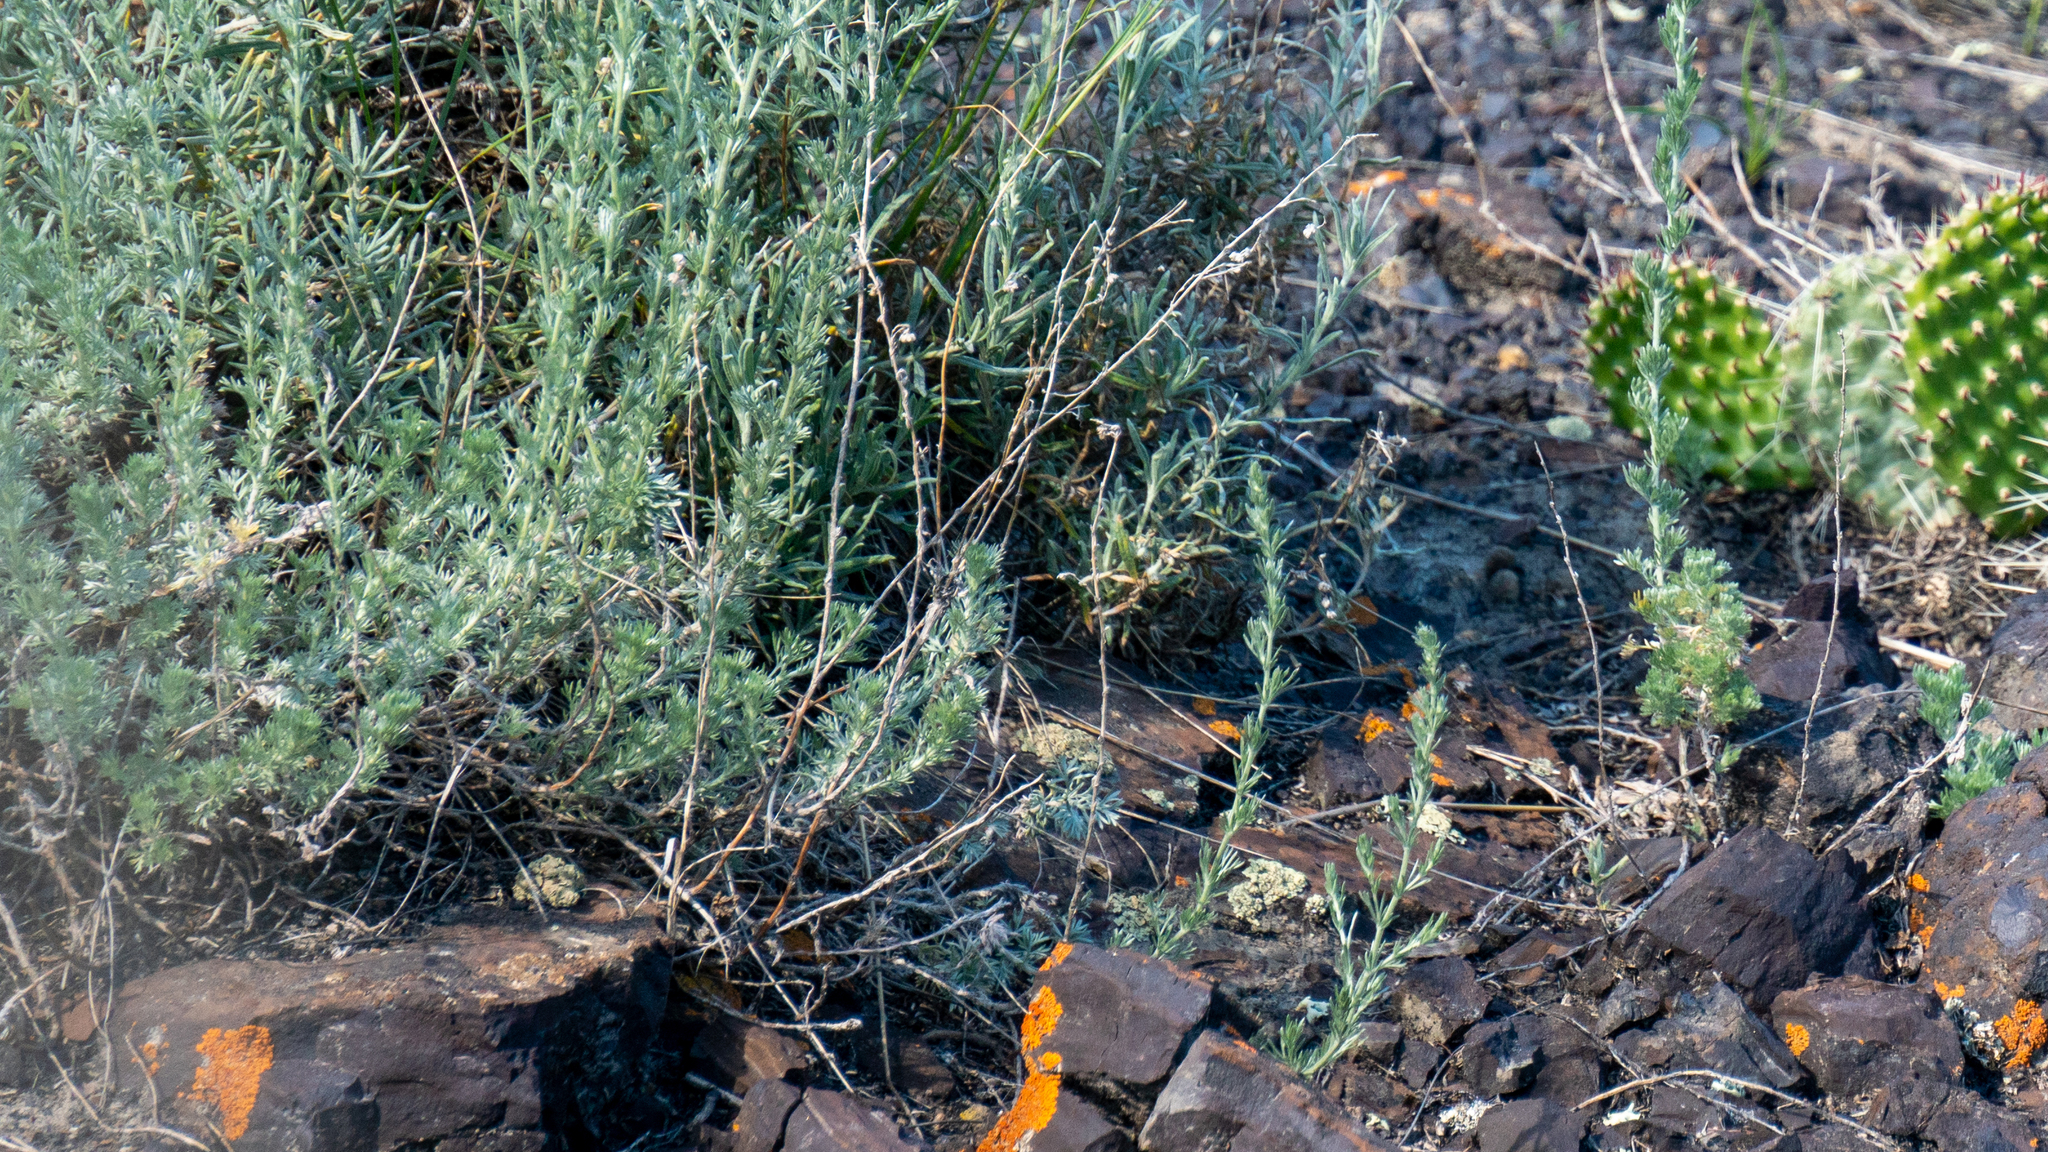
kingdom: Plantae
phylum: Tracheophyta
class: Magnoliopsida
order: Asterales
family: Asteraceae
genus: Artemisia
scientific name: Artemisia frigida
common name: Prairie sagewort
